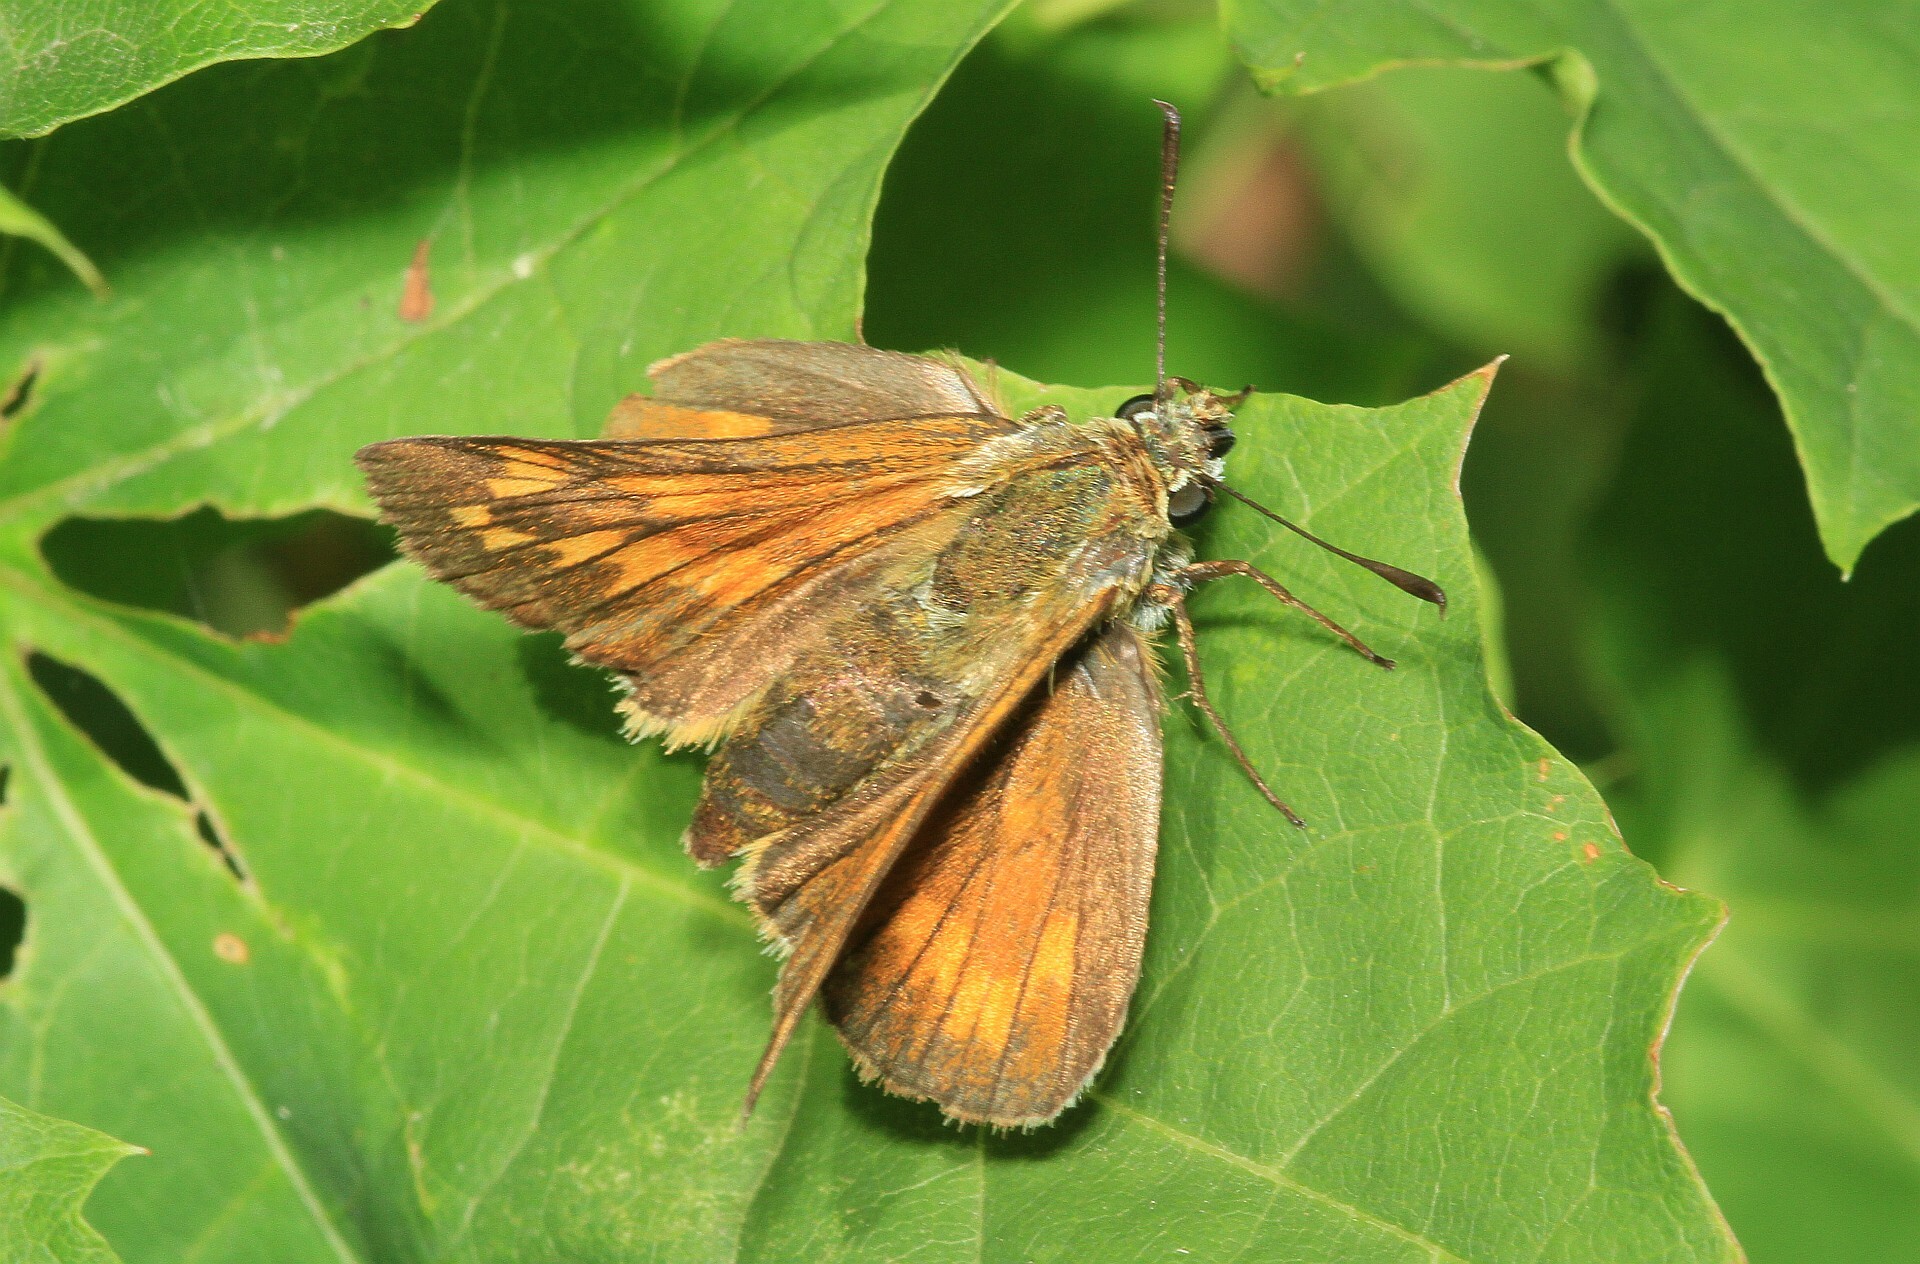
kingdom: Animalia
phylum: Arthropoda
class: Insecta
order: Lepidoptera
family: Hesperiidae
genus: Ochlodes
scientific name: Ochlodes venata
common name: Large skipper
